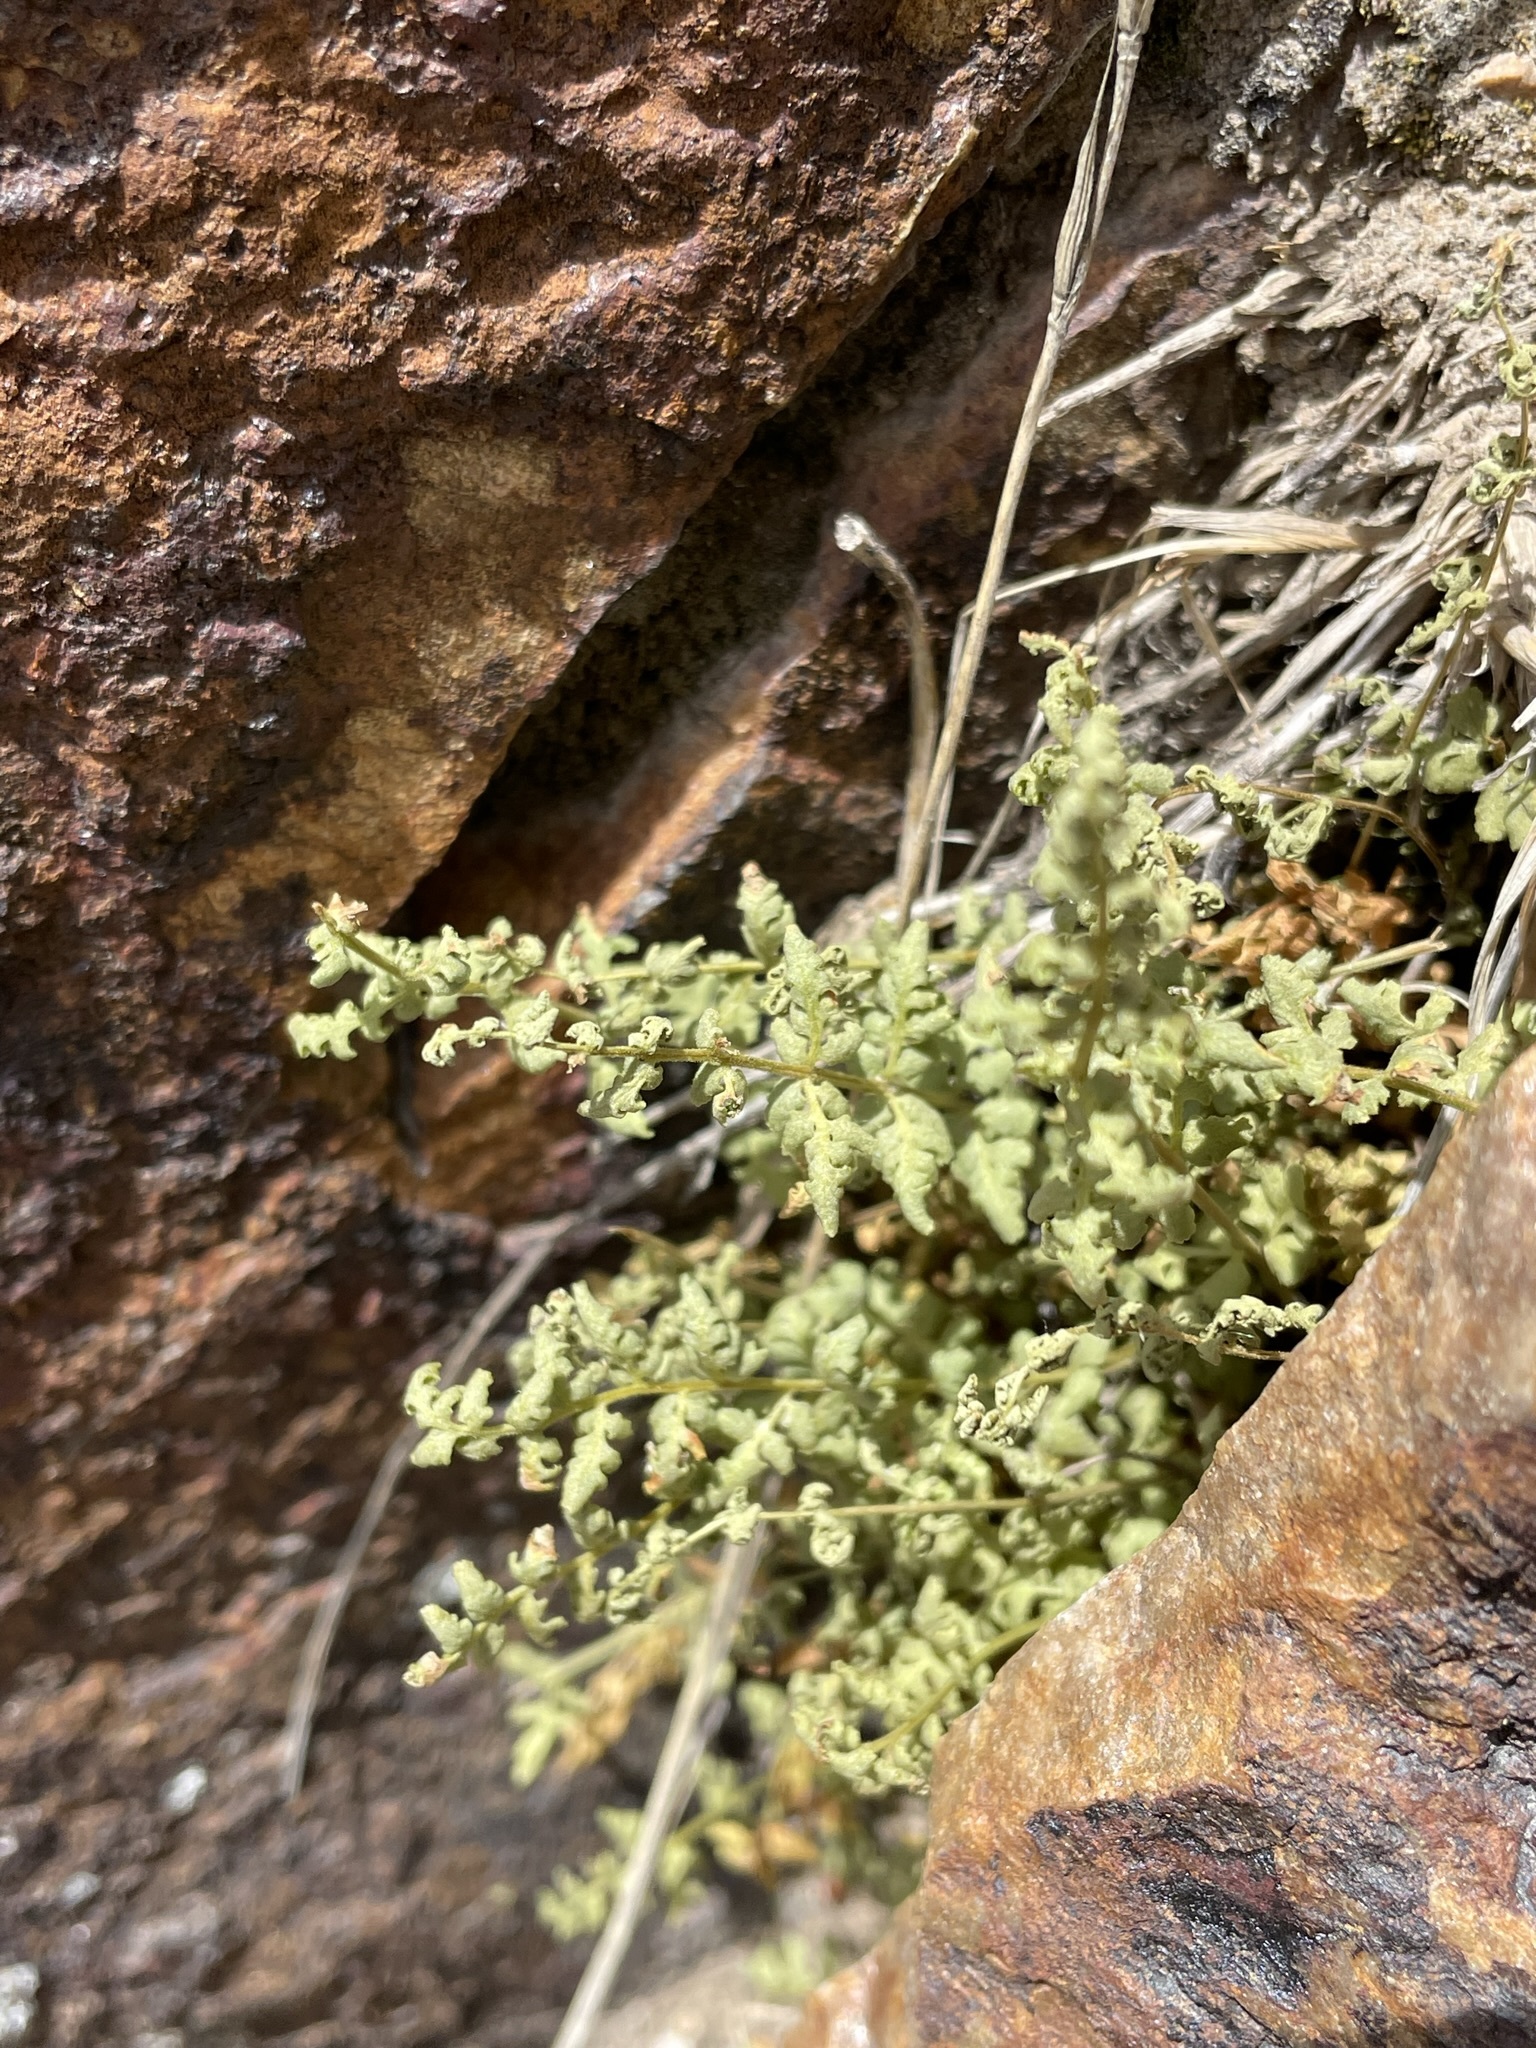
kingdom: Plantae
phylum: Tracheophyta
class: Polypodiopsida
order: Polypodiales
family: Woodsiaceae
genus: Physematium
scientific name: Physematium oreganum
